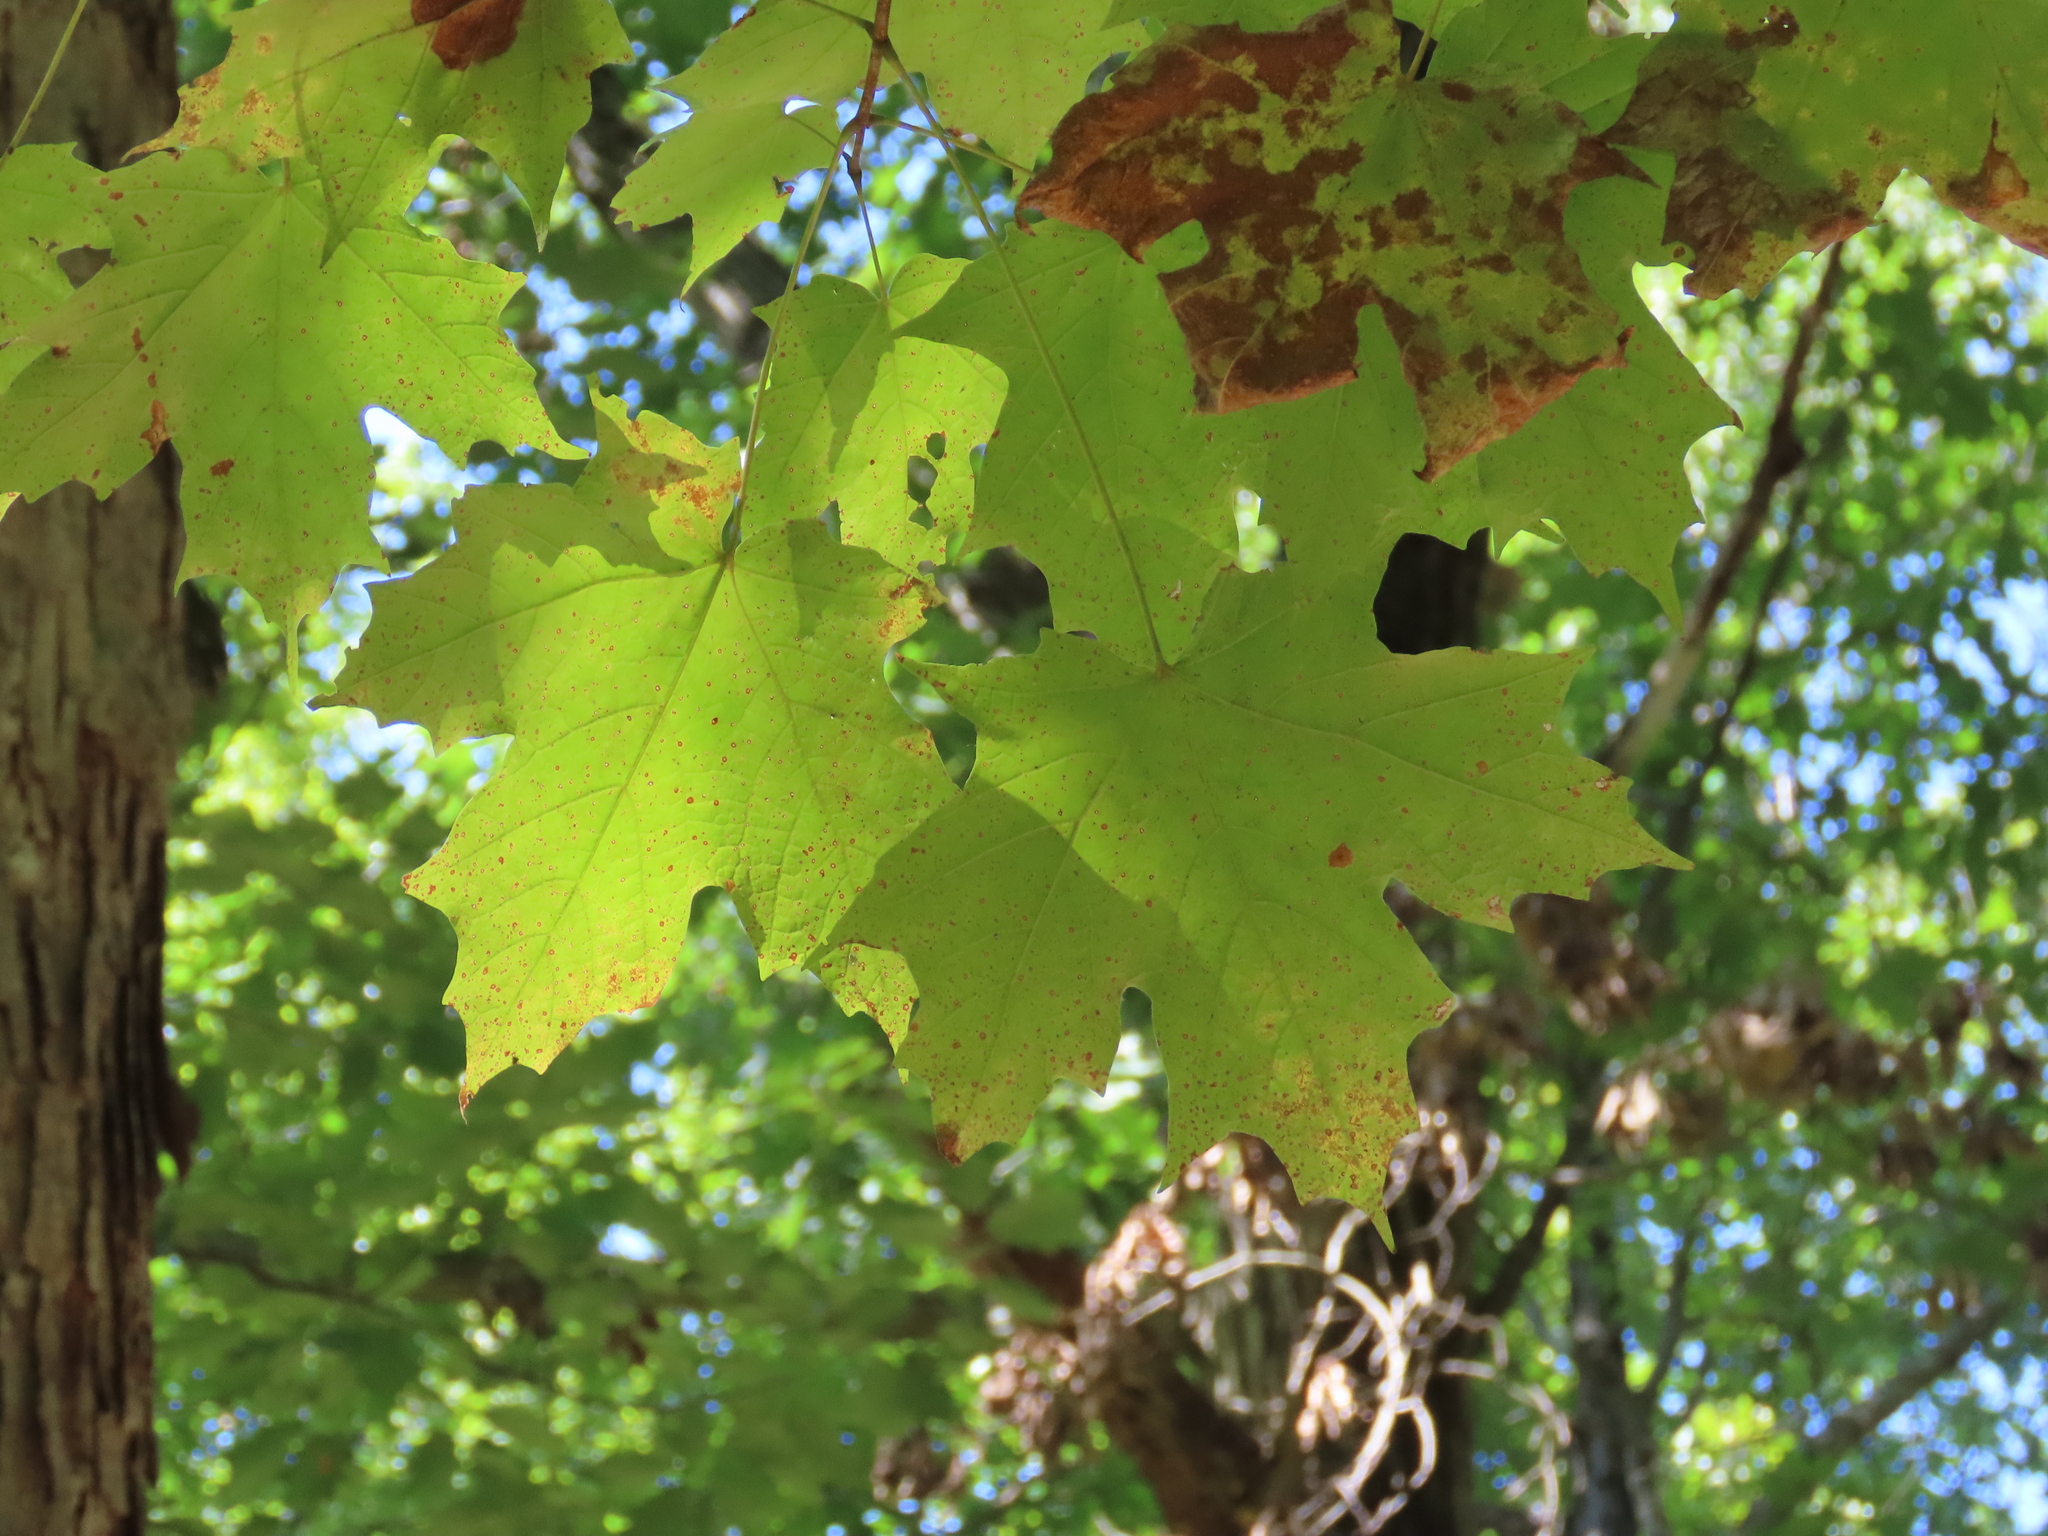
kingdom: Plantae
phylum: Tracheophyta
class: Magnoliopsida
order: Sapindales
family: Sapindaceae
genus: Acer
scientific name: Acer saccharum
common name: Sugar maple
